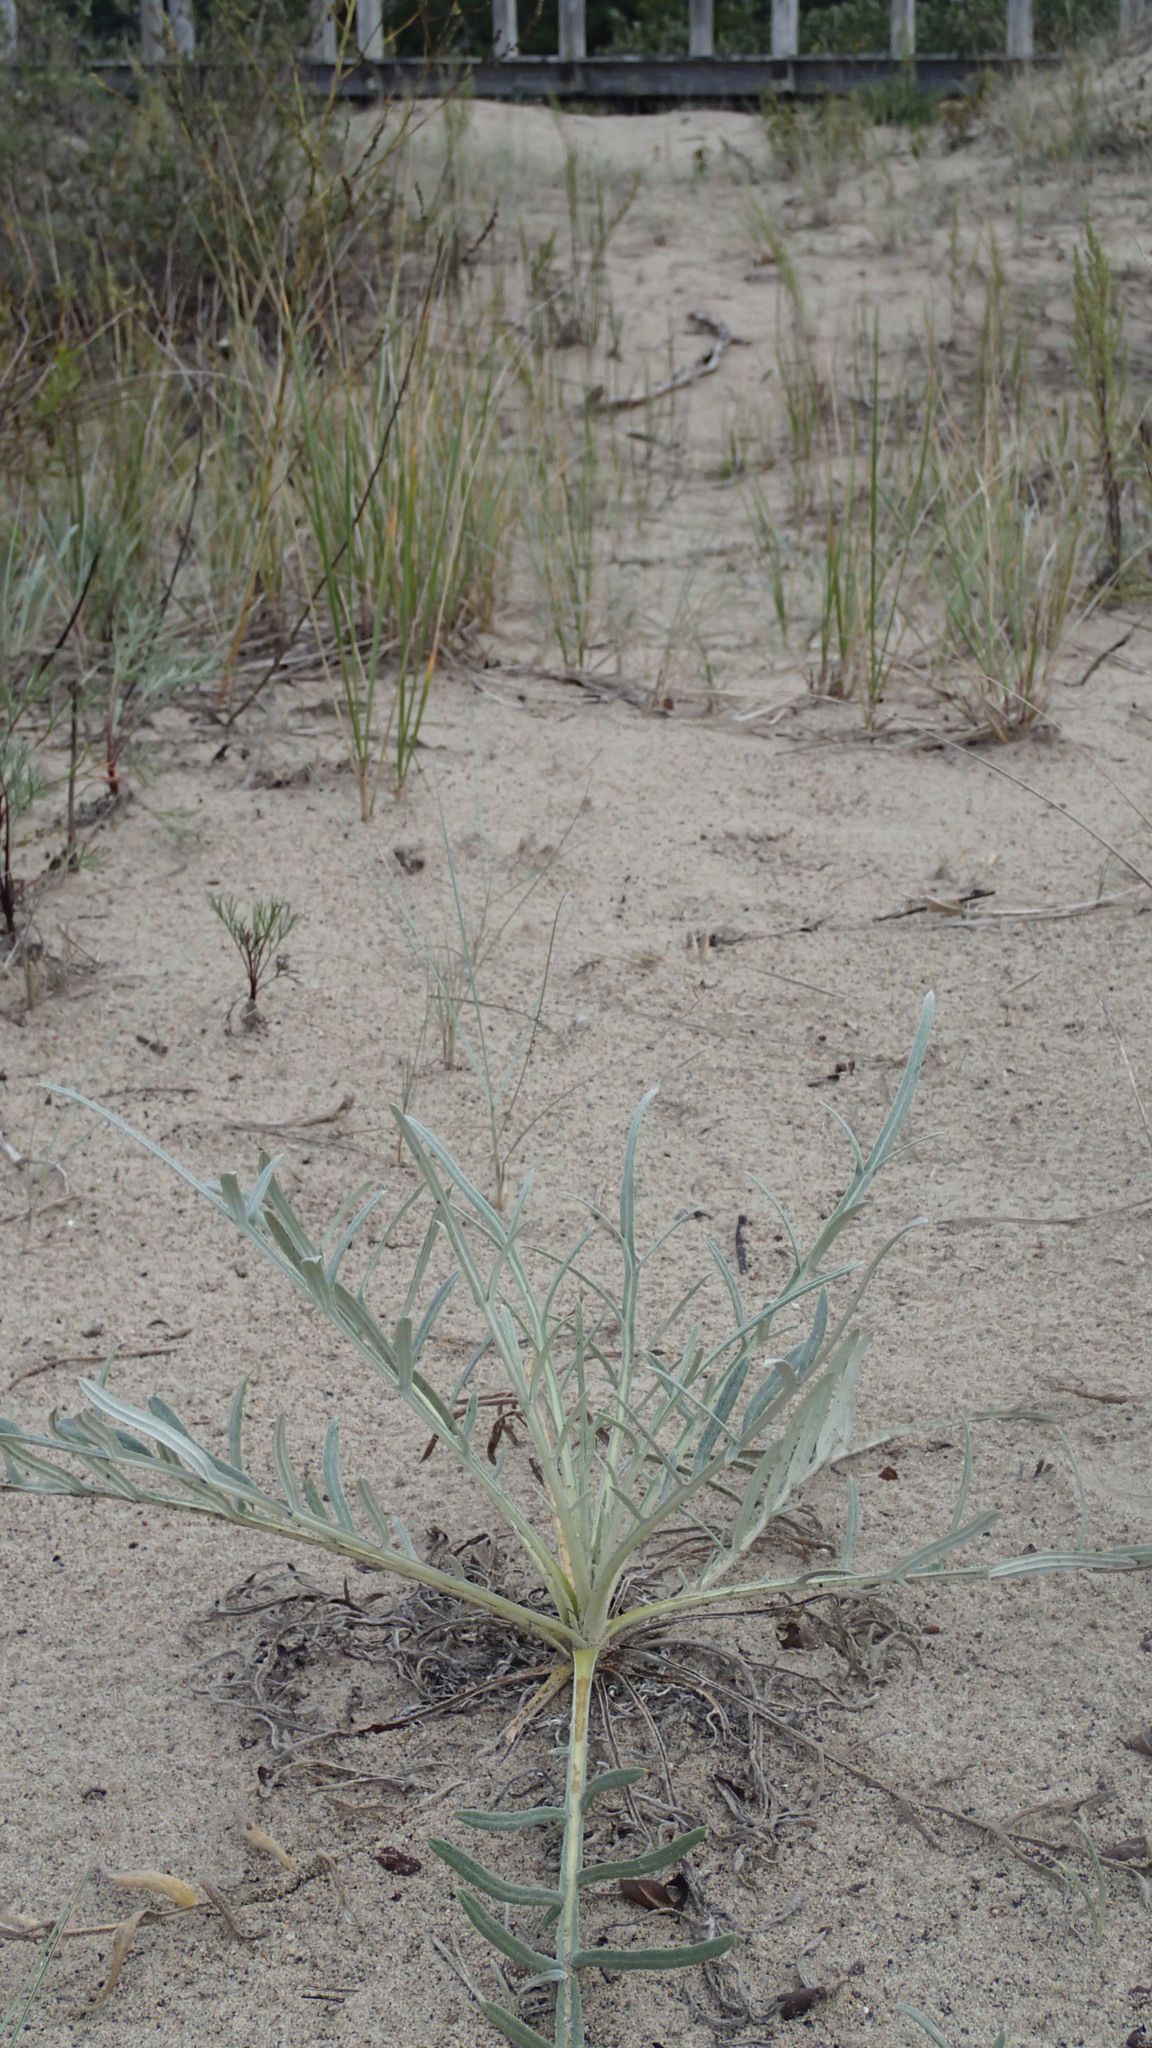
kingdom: Plantae
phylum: Tracheophyta
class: Magnoliopsida
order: Asterales
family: Asteraceae
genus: Cirsium
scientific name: Cirsium pitcheri
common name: Dune thistle
